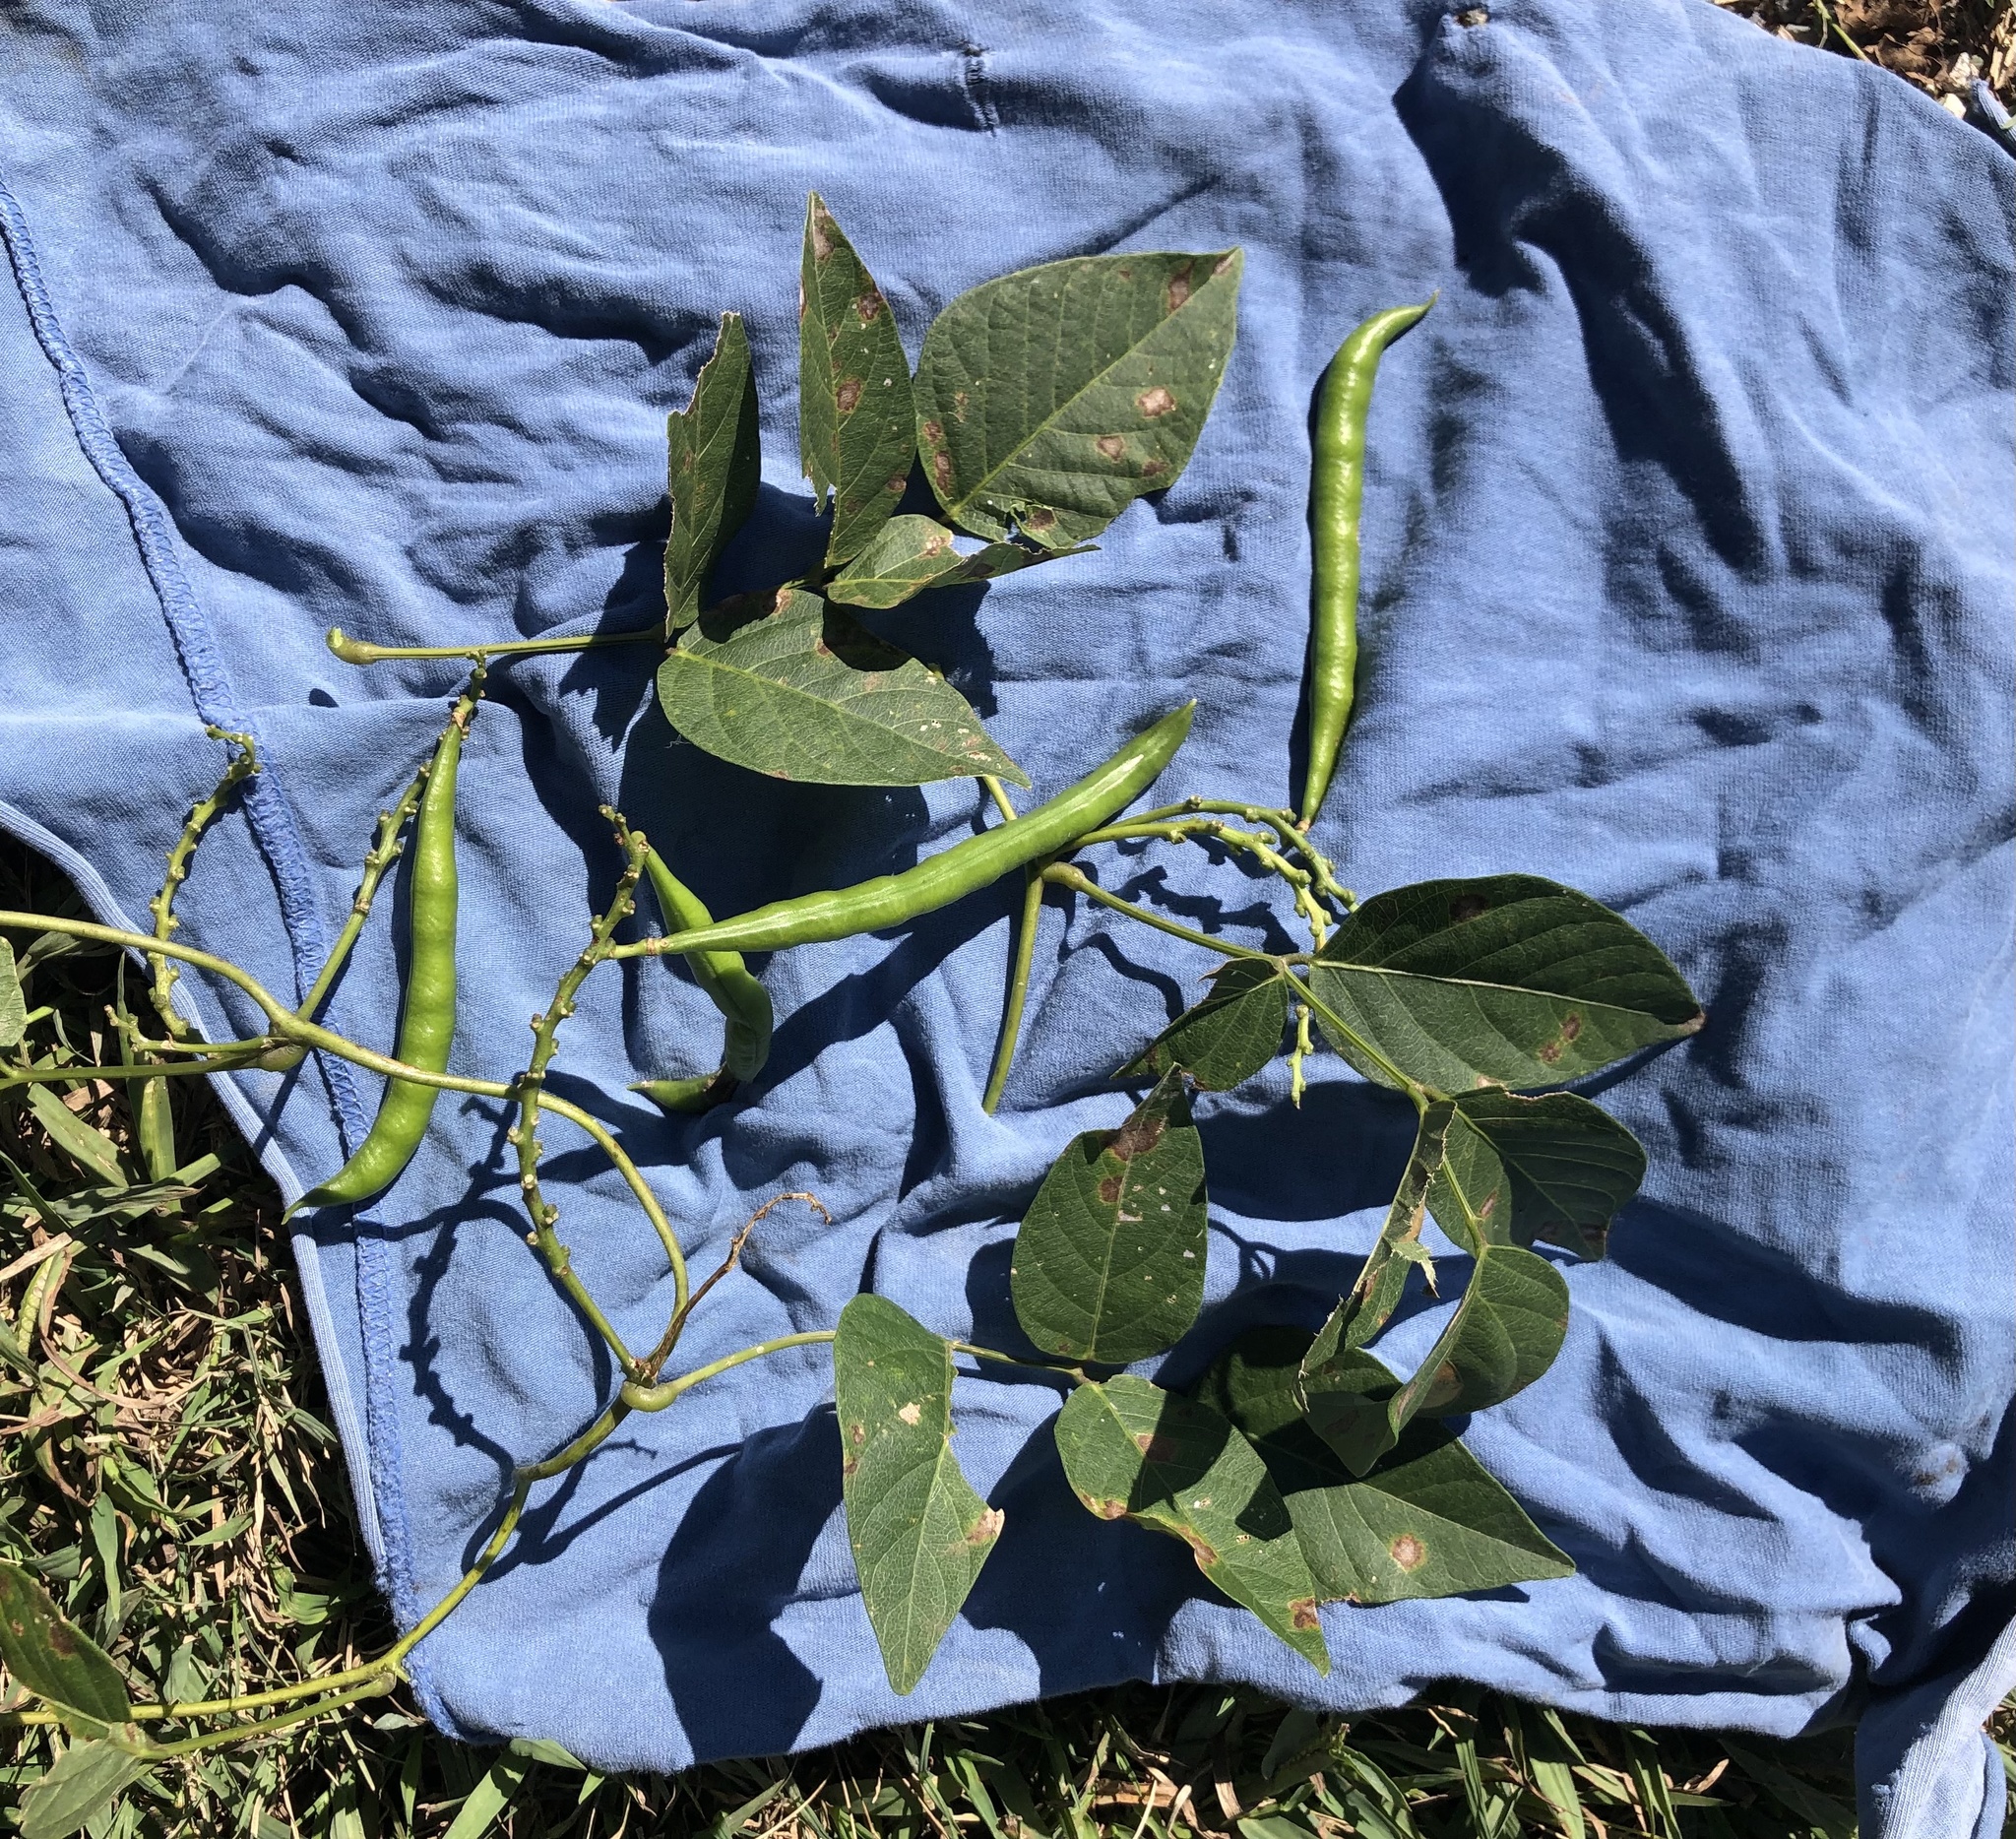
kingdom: Plantae
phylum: Tracheophyta
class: Magnoliopsida
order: Fabales
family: Fabaceae
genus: Apios
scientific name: Apios americana
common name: American potato-bean
